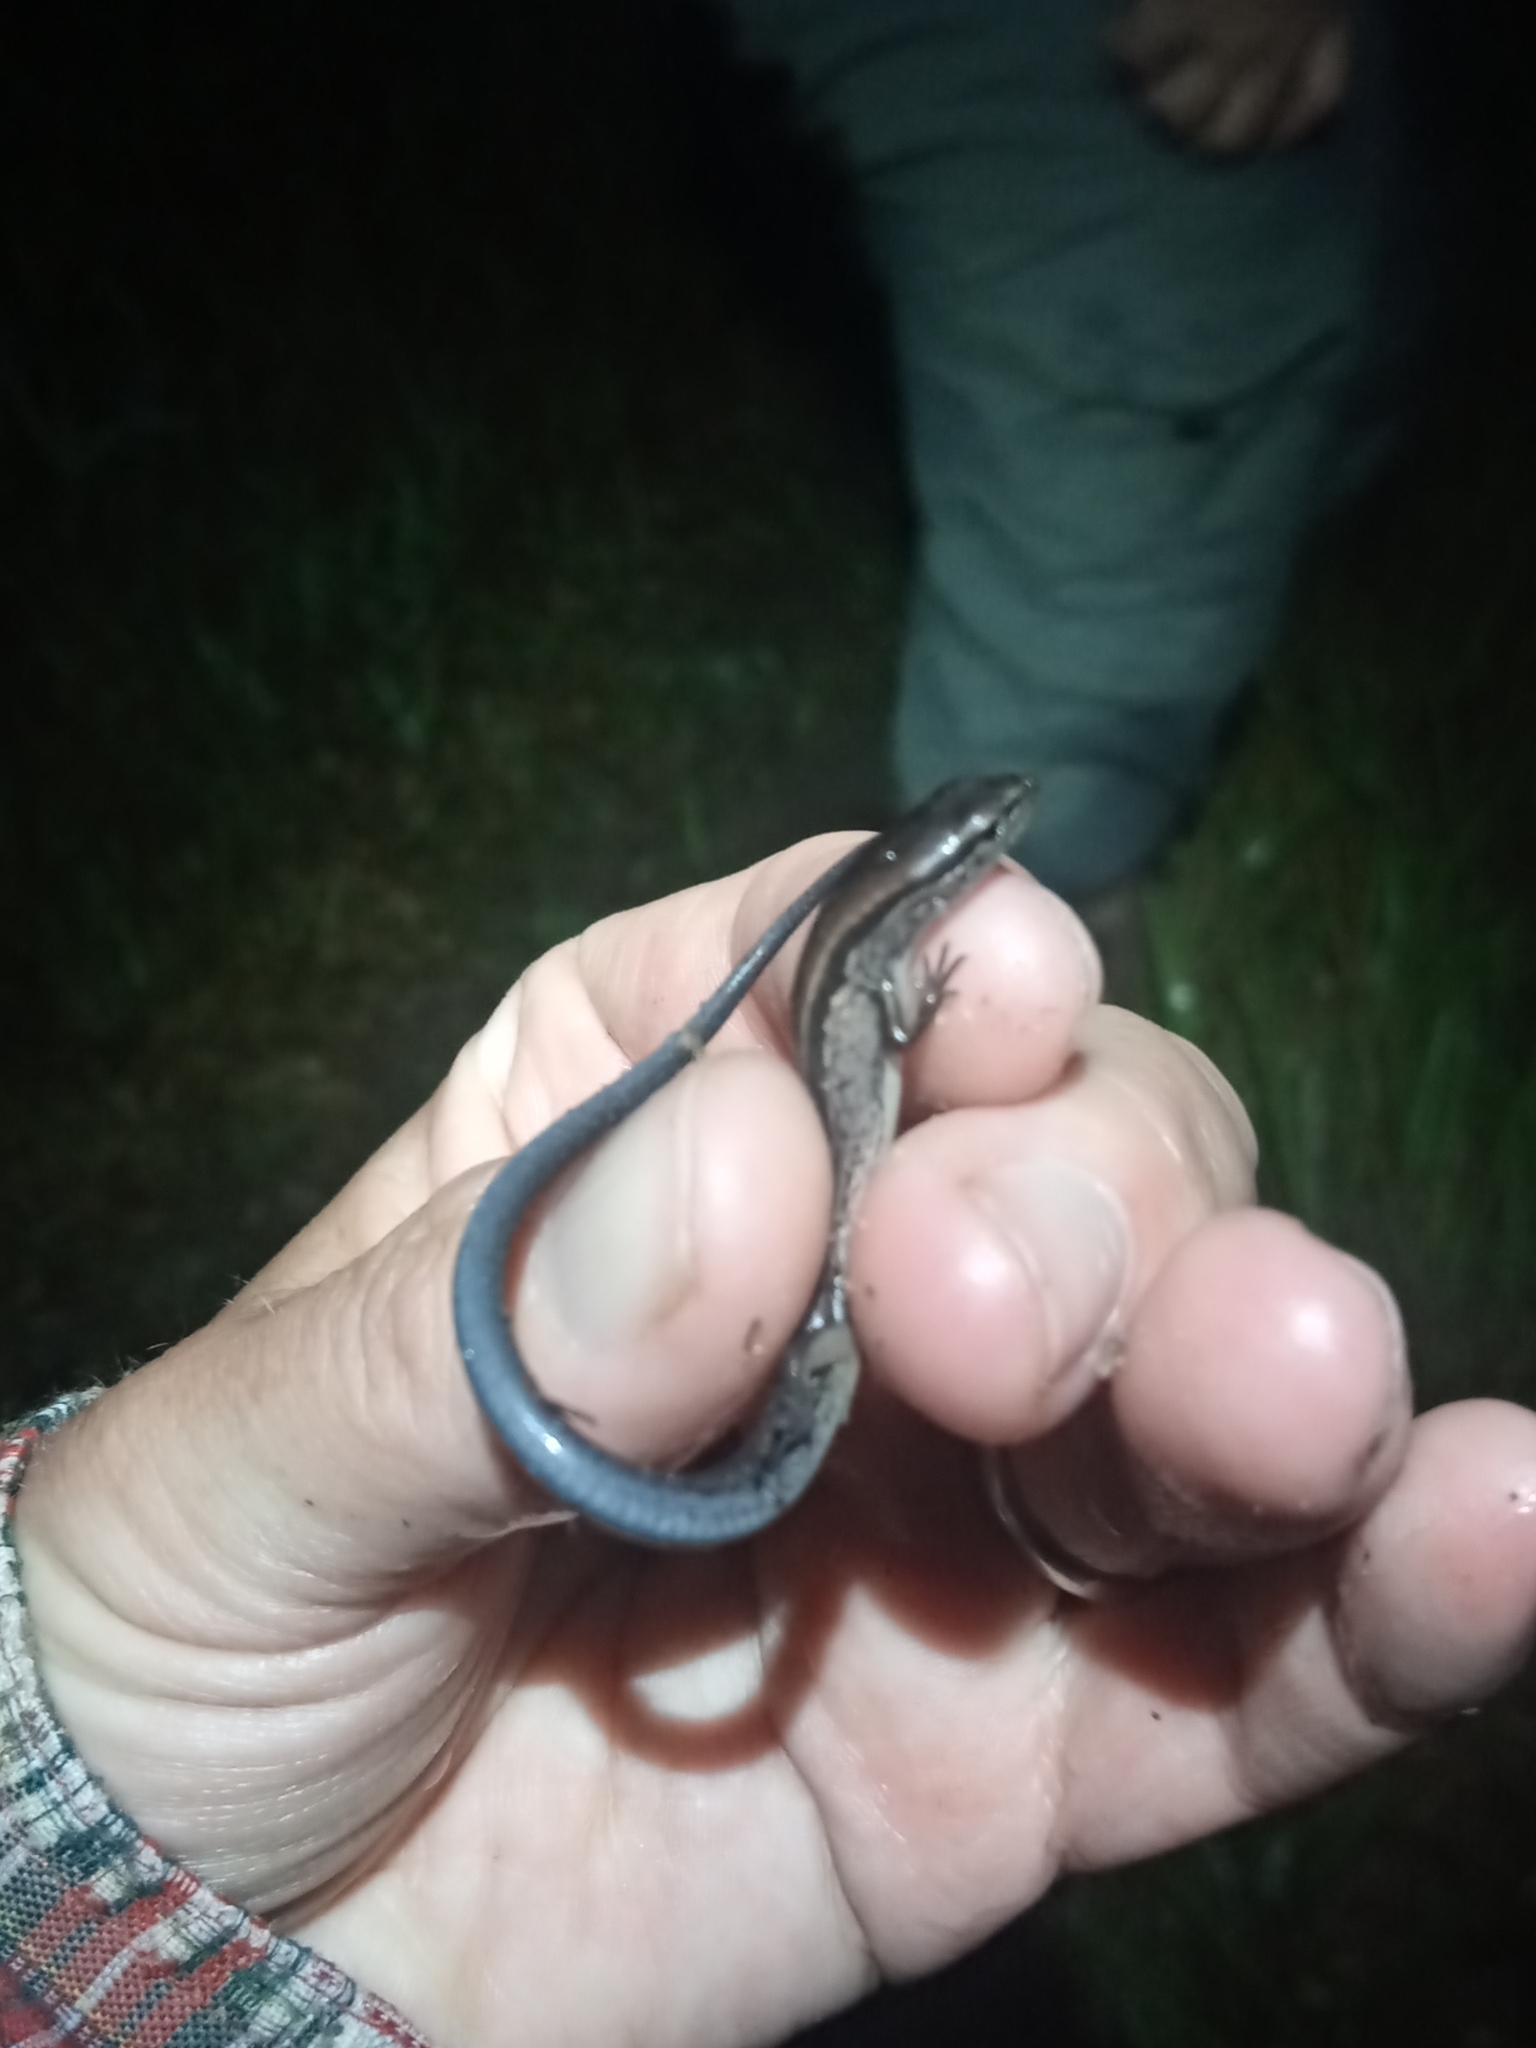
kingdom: Animalia
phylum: Chordata
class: Squamata
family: Scincidae
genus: Scincella
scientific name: Scincella lateralis
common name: Ground skink
